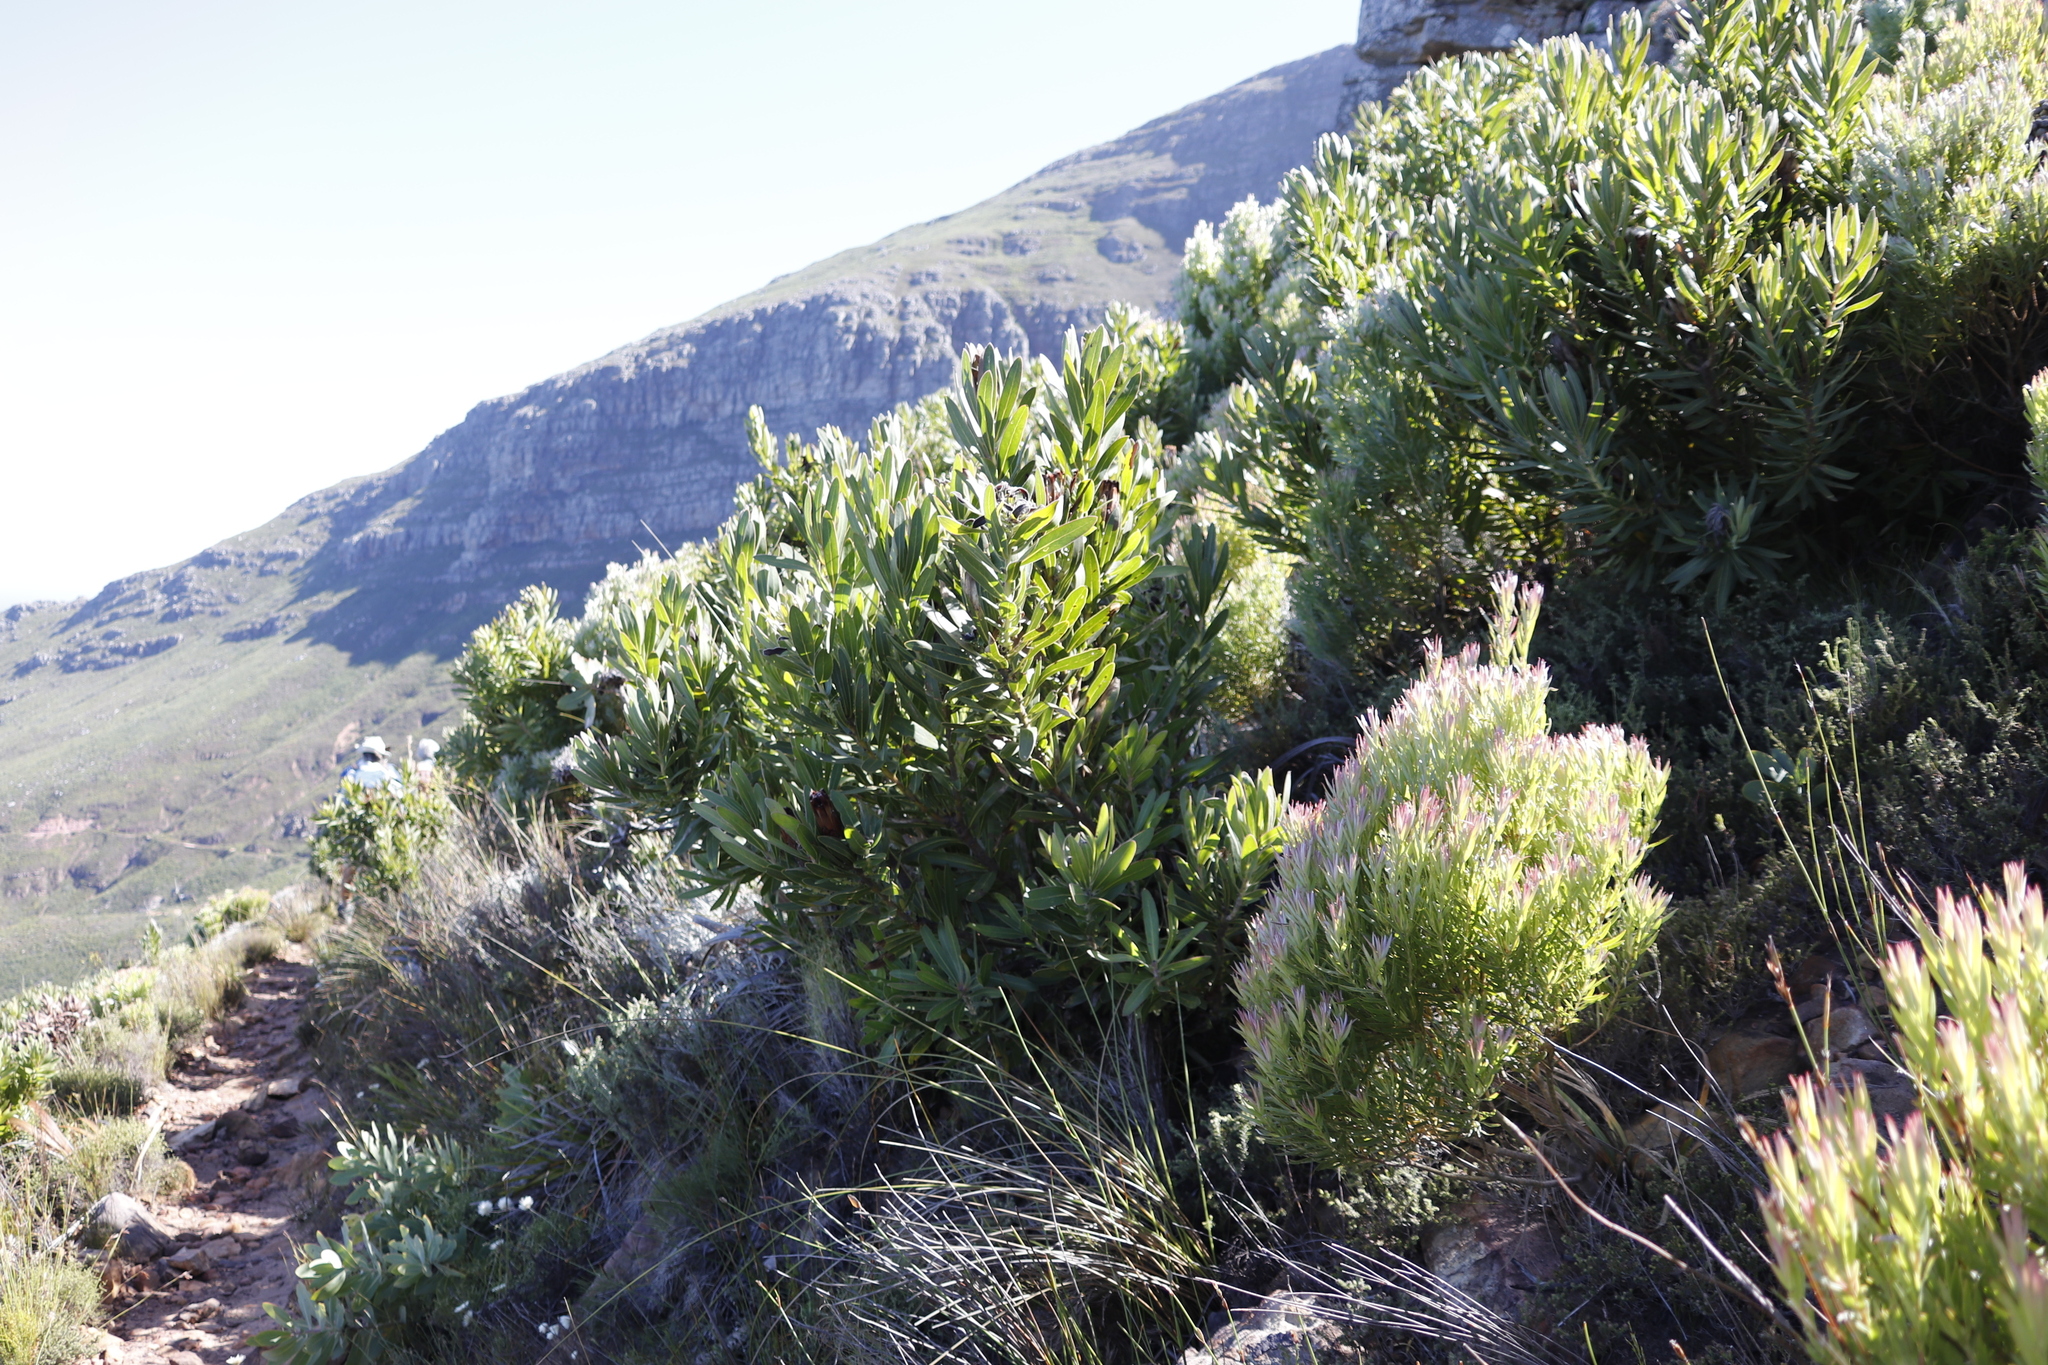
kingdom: Plantae
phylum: Tracheophyta
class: Magnoliopsida
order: Proteales
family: Proteaceae
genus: Leucadendron
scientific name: Leucadendron xanthoconus
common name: Sickle-leaf conebush
